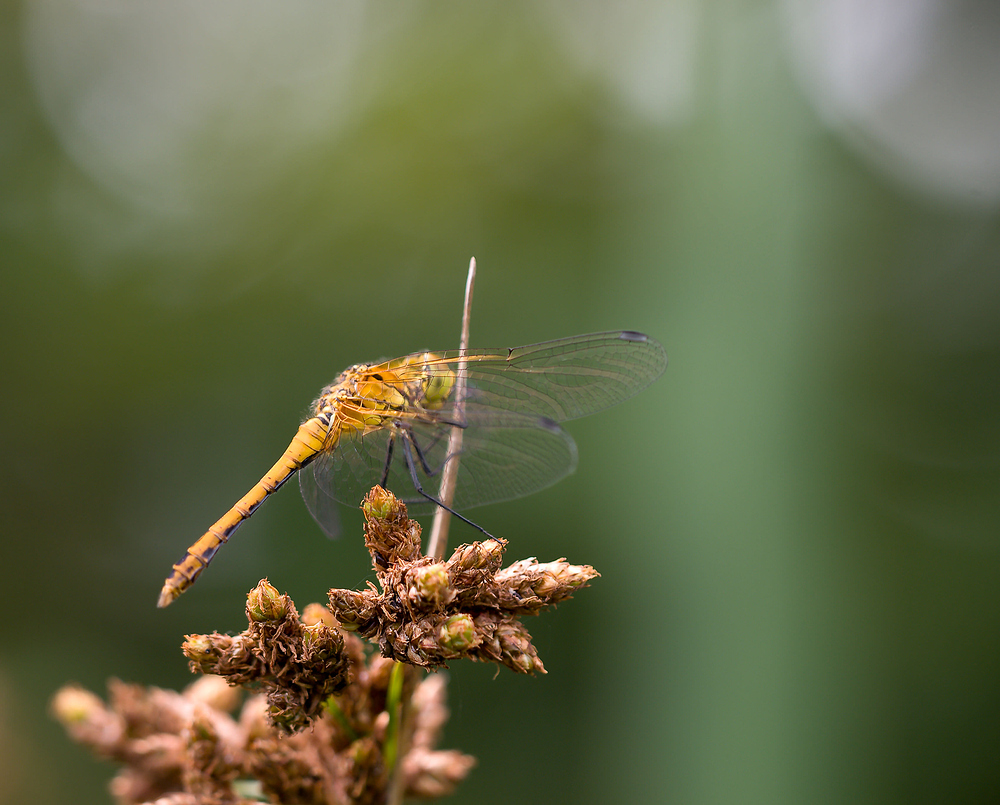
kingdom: Animalia
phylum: Arthropoda
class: Insecta
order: Odonata
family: Libellulidae
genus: Sympetrum
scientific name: Sympetrum sanguineum
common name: Ruddy darter
